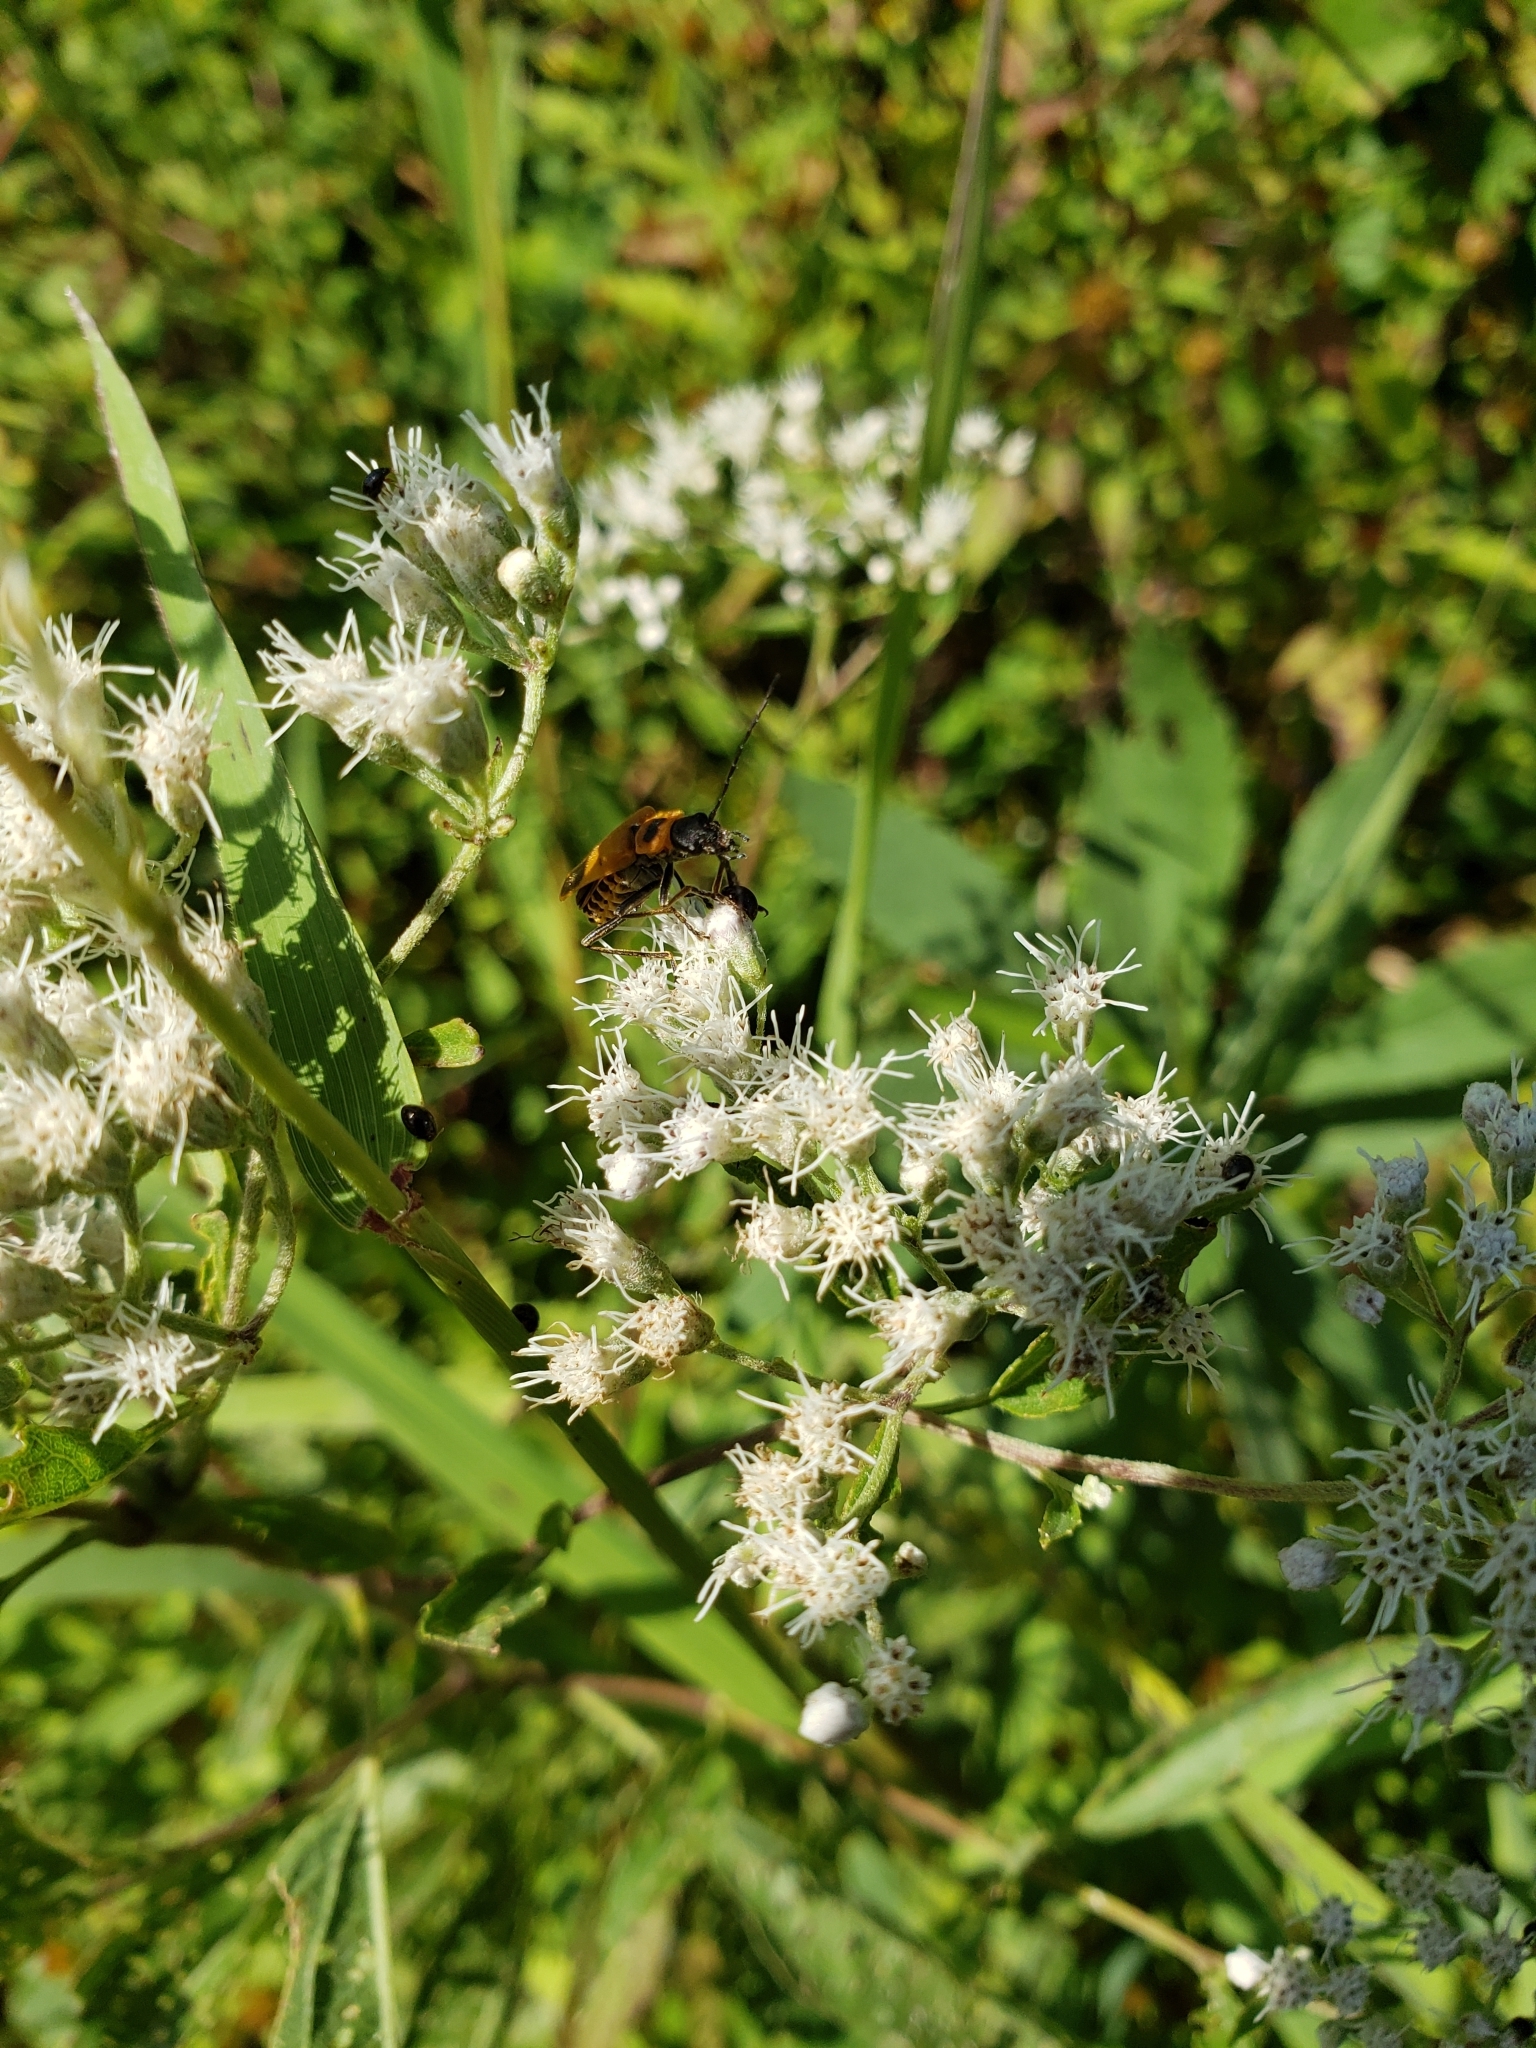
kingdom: Plantae
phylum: Tracheophyta
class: Magnoliopsida
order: Asterales
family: Asteraceae
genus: Eupatorium
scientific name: Eupatorium serotinum
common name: Late boneset
